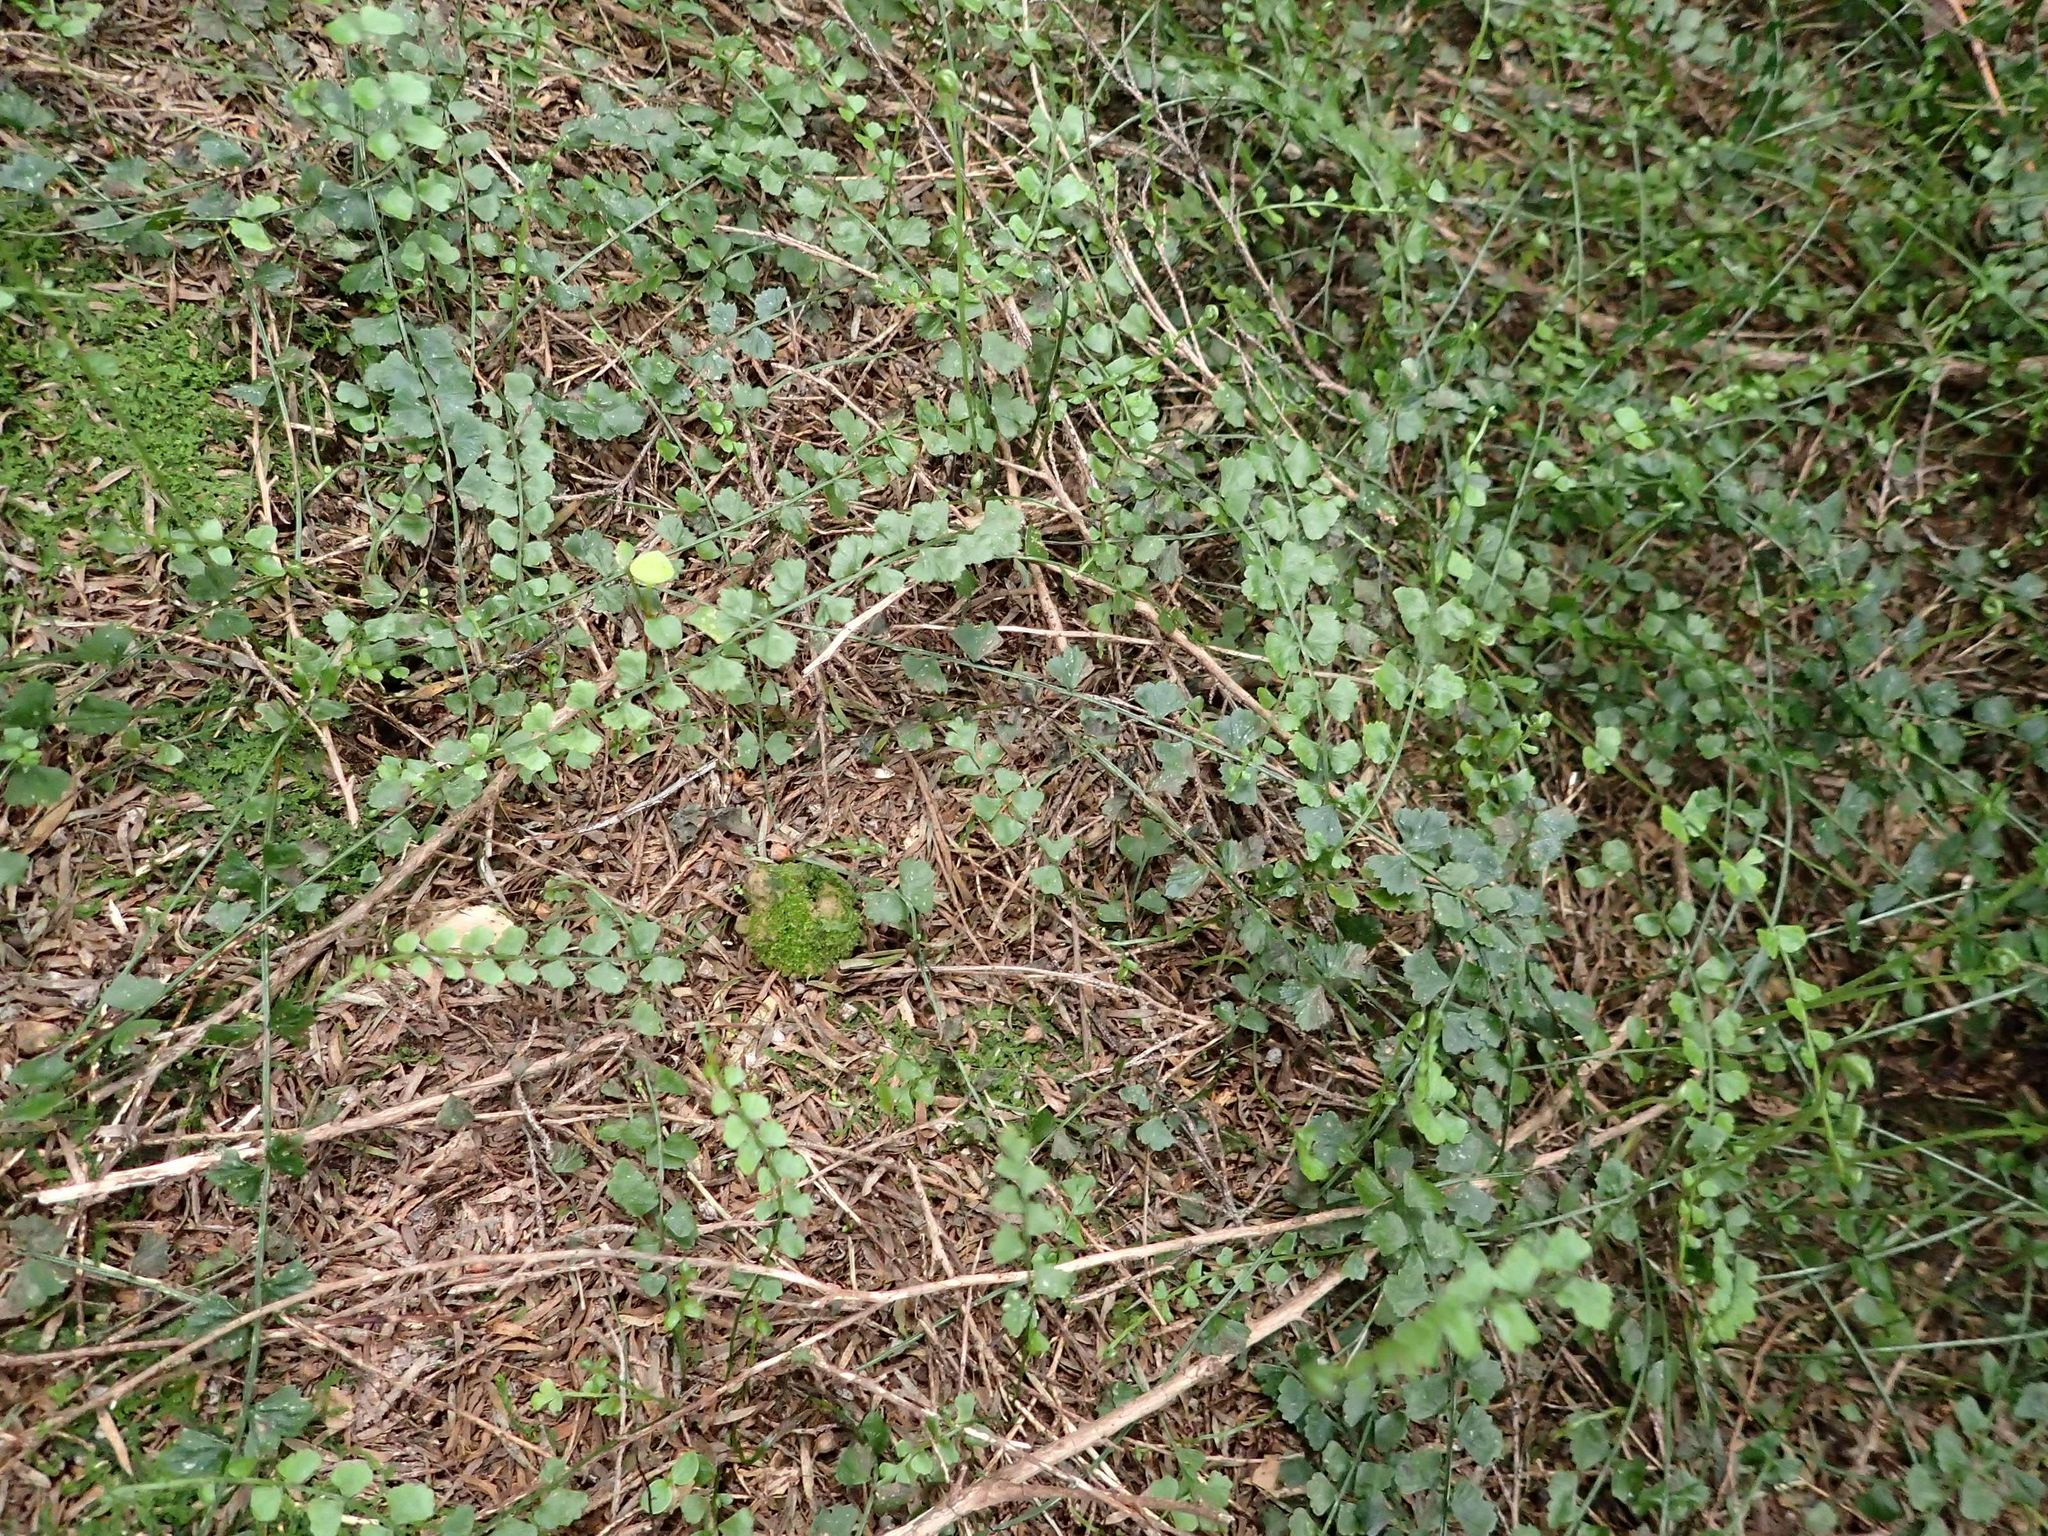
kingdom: Plantae
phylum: Tracheophyta
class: Polypodiopsida
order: Polypodiales
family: Aspleniaceae
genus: Asplenium
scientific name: Asplenium flabellifolium
